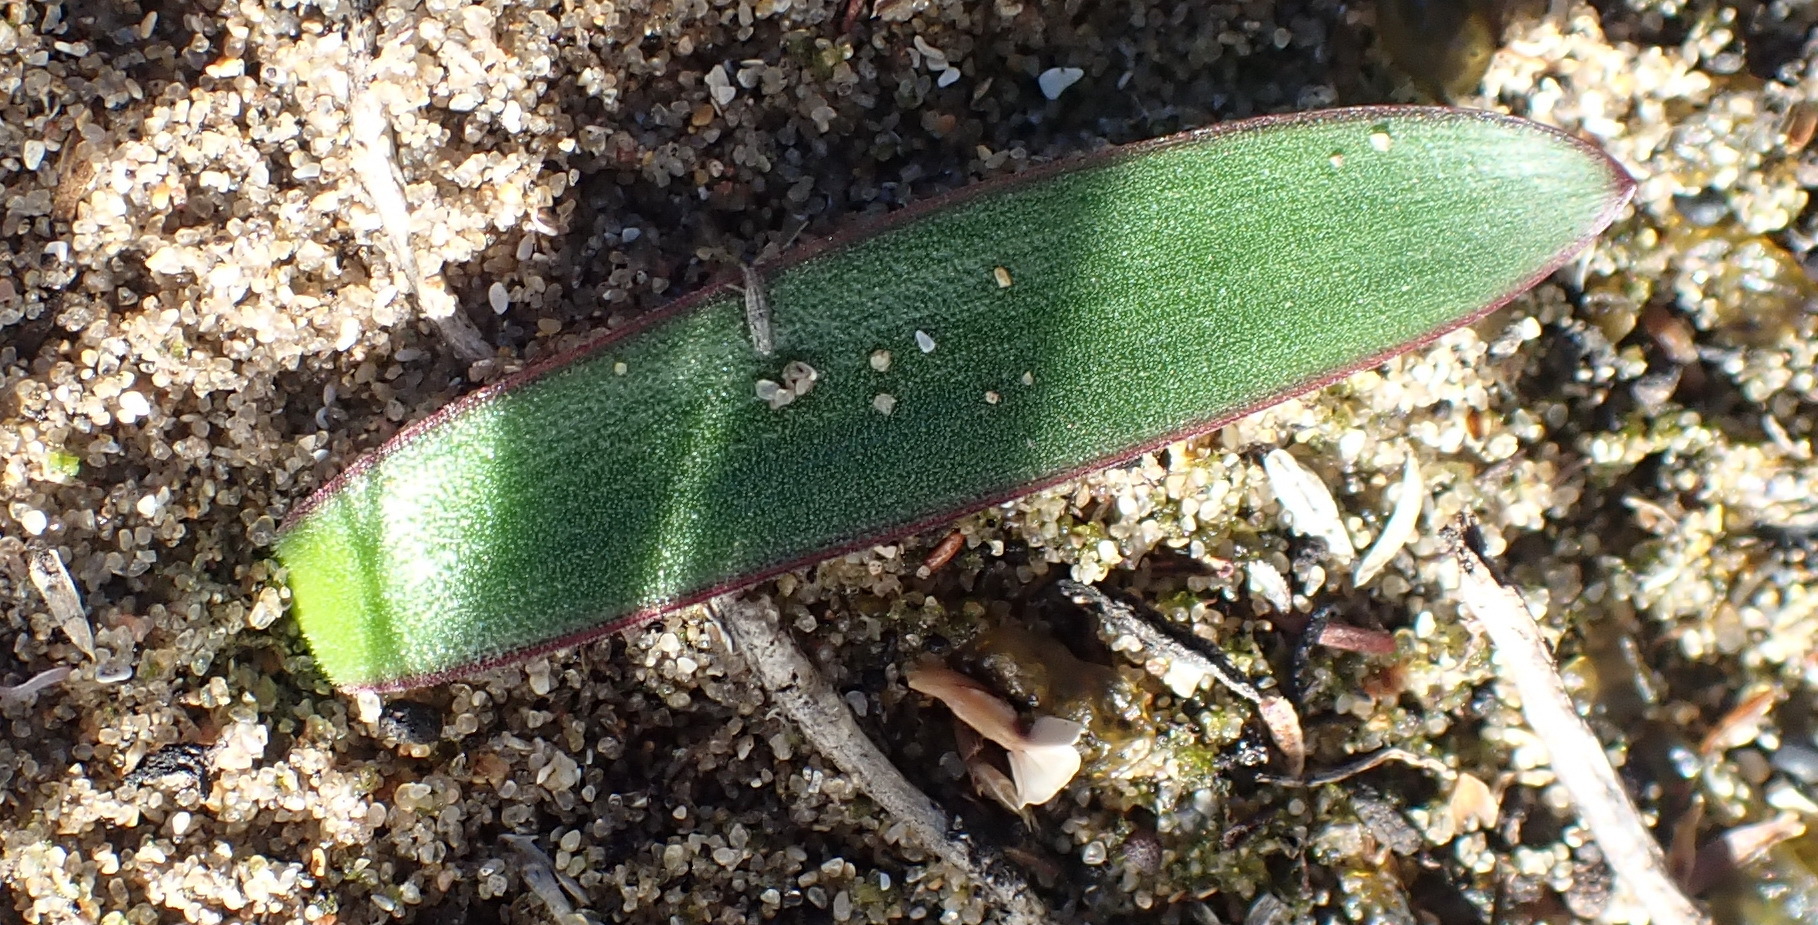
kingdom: Plantae
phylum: Tracheophyta
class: Liliopsida
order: Asparagales
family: Amaryllidaceae
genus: Apodolirion
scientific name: Apodolirion lanceolatum
